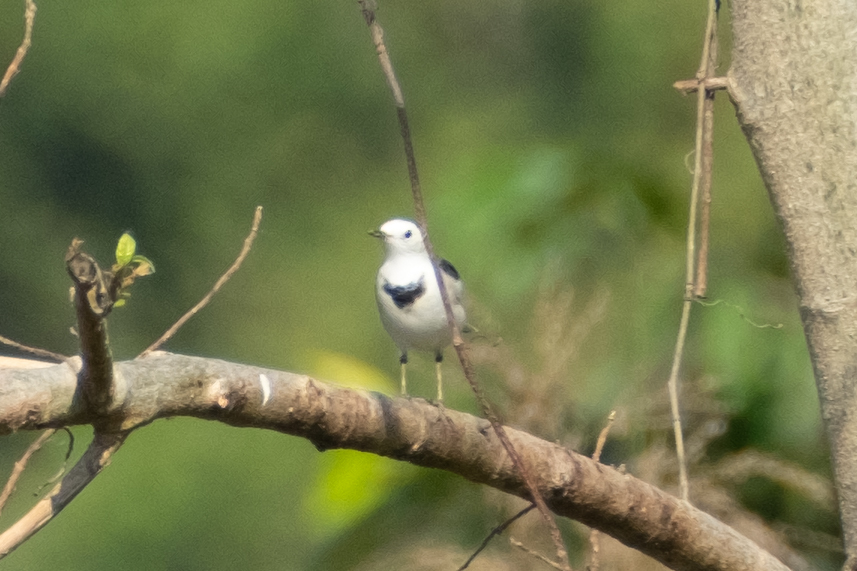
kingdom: Animalia
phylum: Chordata
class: Aves
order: Passeriformes
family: Motacillidae
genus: Motacilla
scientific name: Motacilla alba
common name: White wagtail
